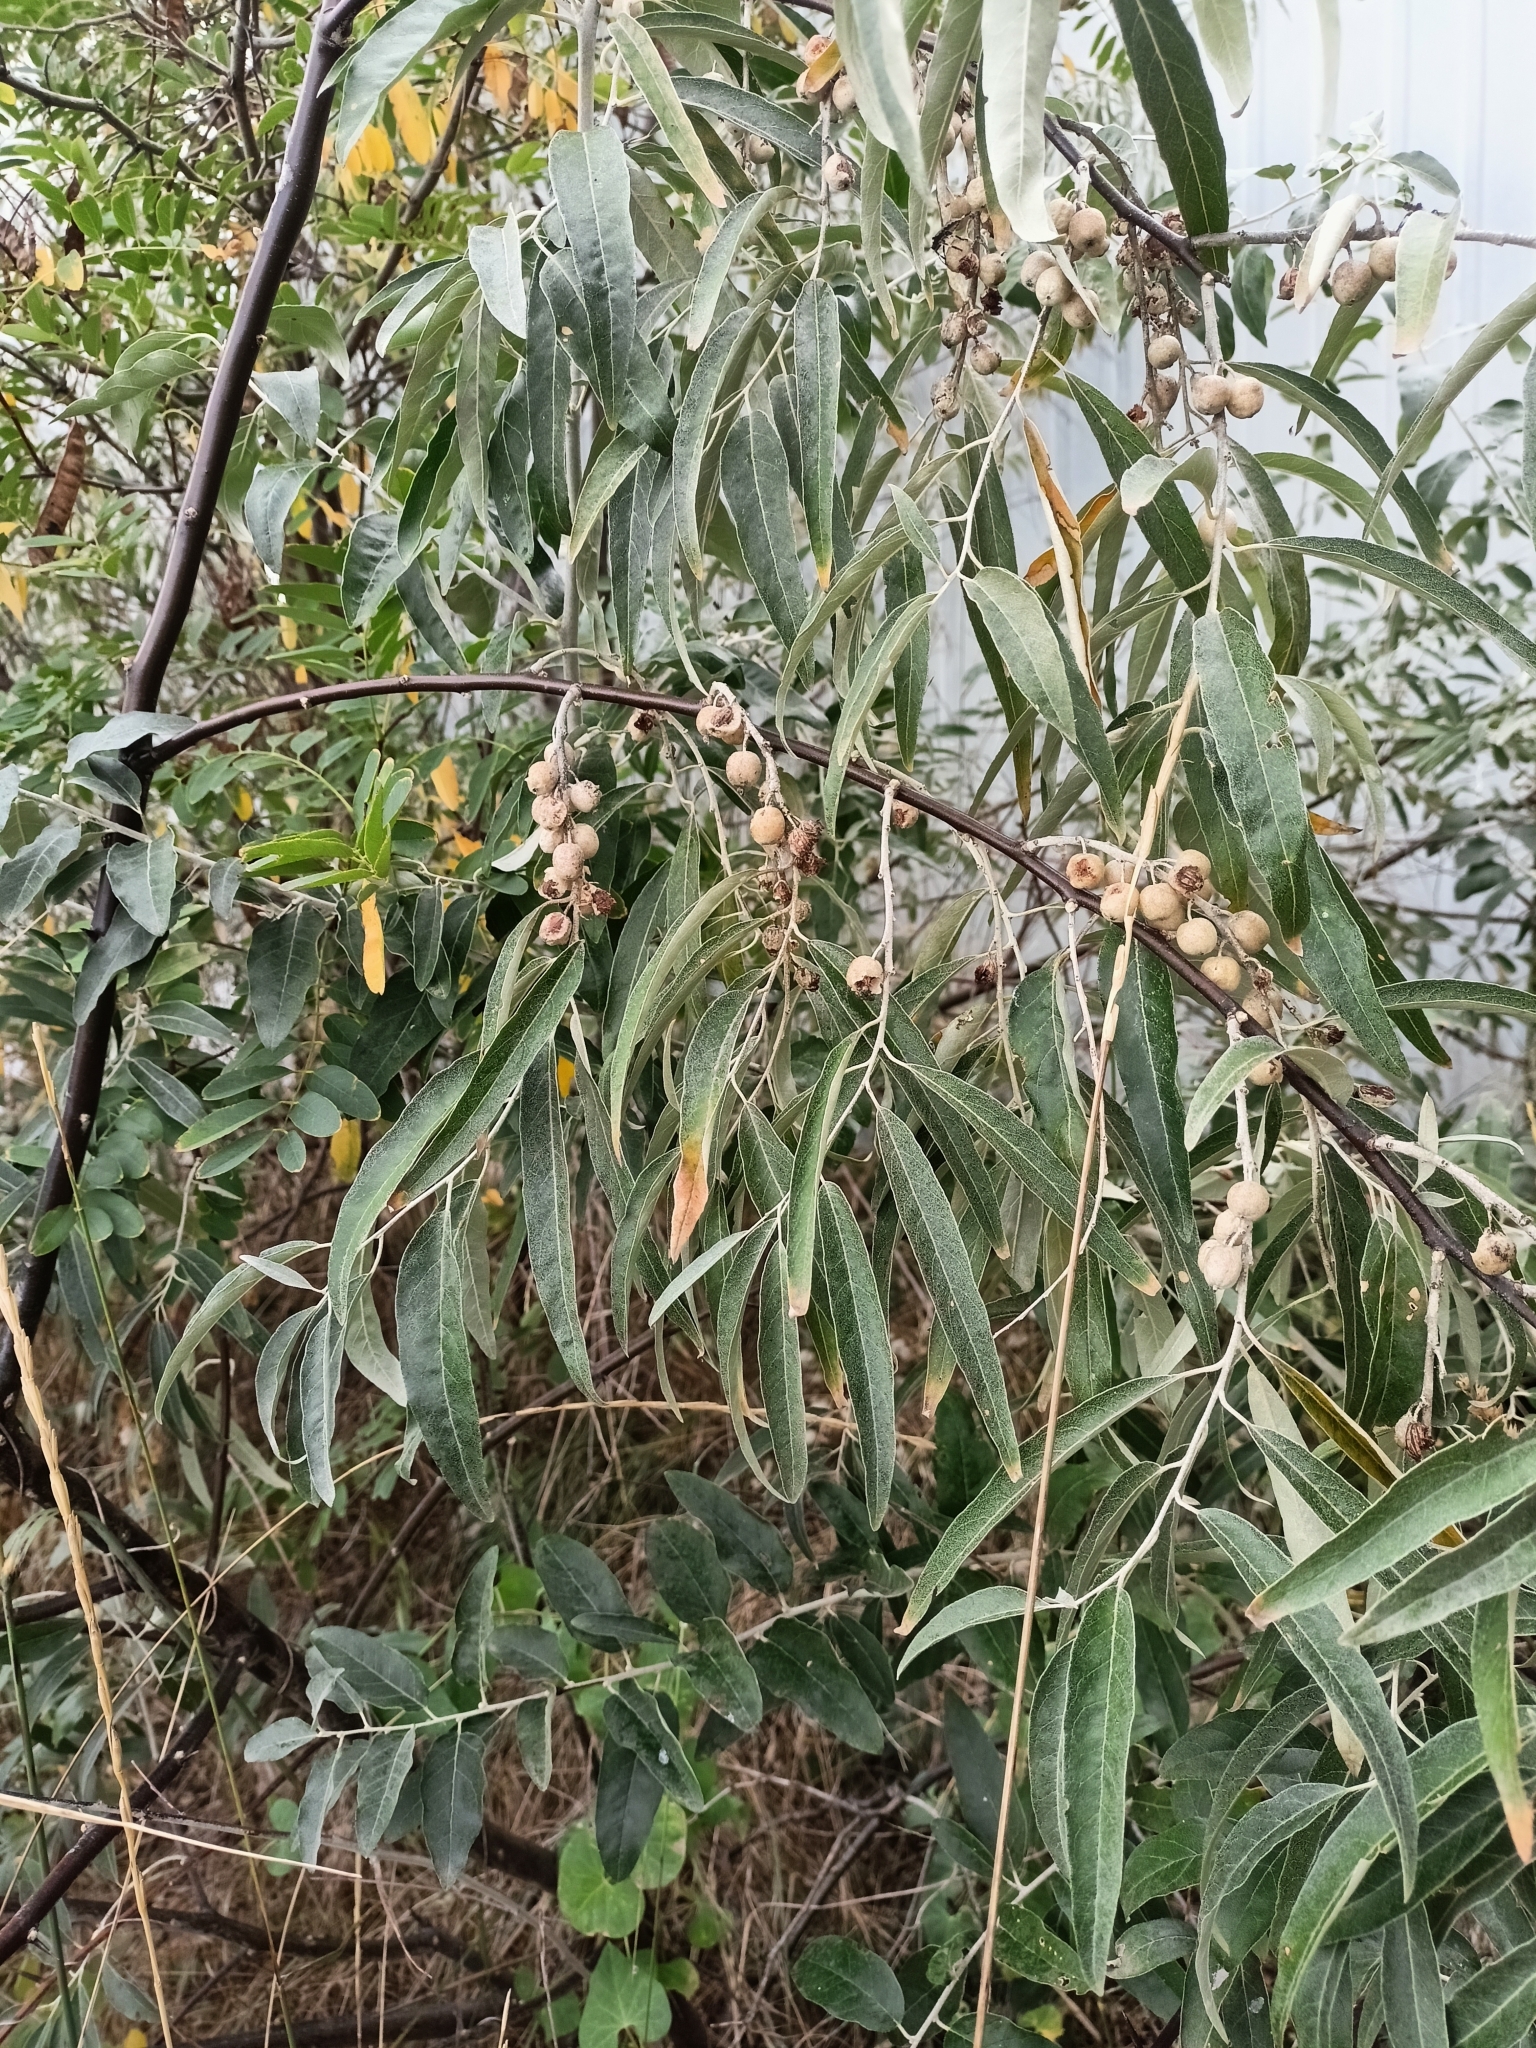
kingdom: Plantae
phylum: Tracheophyta
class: Magnoliopsida
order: Rosales
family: Elaeagnaceae
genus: Elaeagnus
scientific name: Elaeagnus angustifolia
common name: Russian olive
